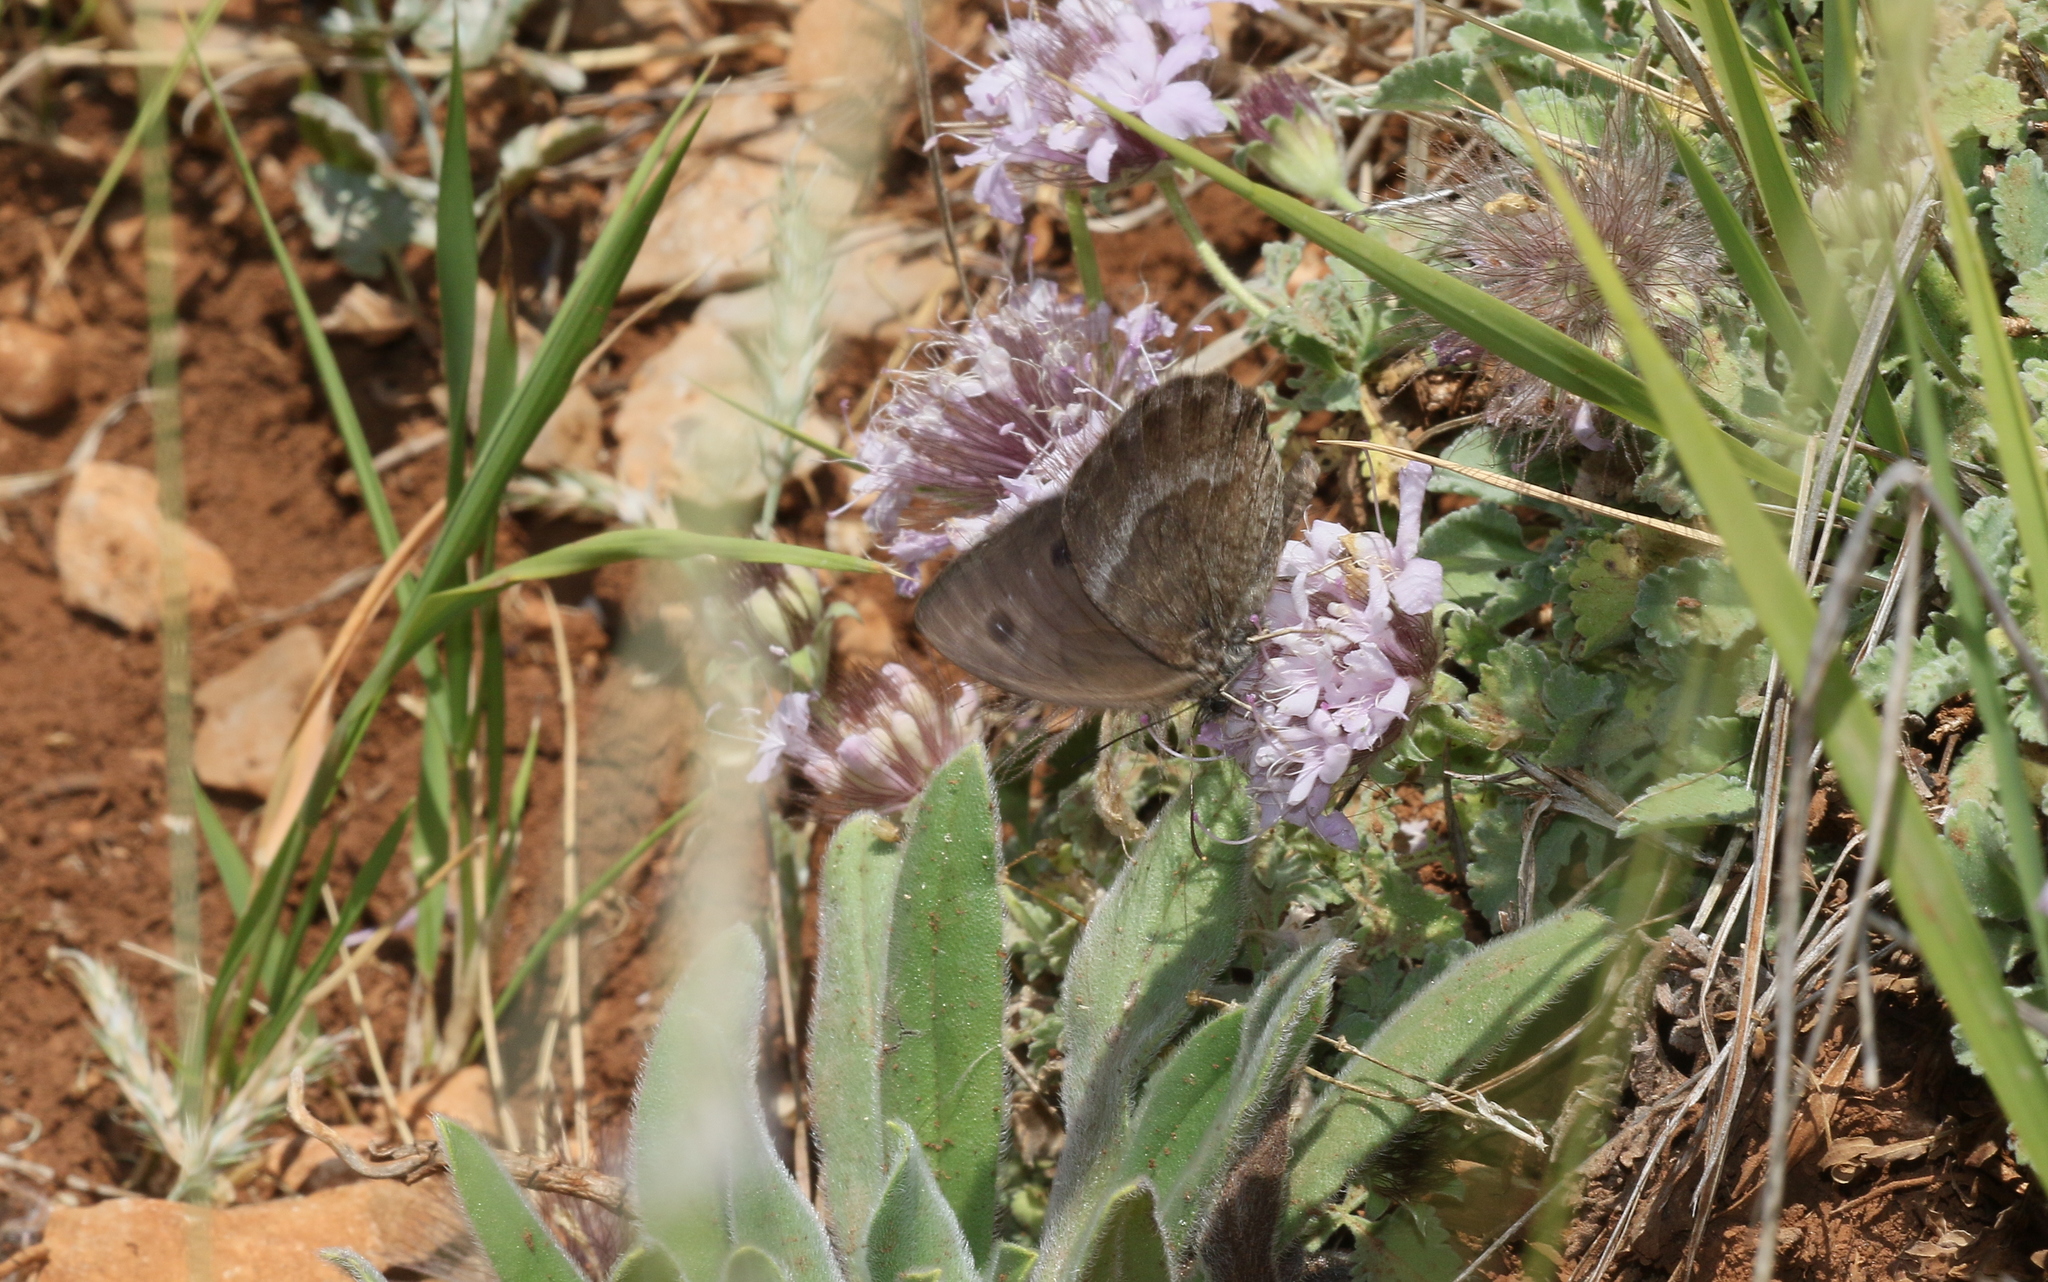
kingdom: Animalia
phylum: Arthropoda
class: Insecta
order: Lepidoptera
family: Nymphalidae
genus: Satyrus
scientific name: Satyrus ferula
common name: Great sooty satyr
